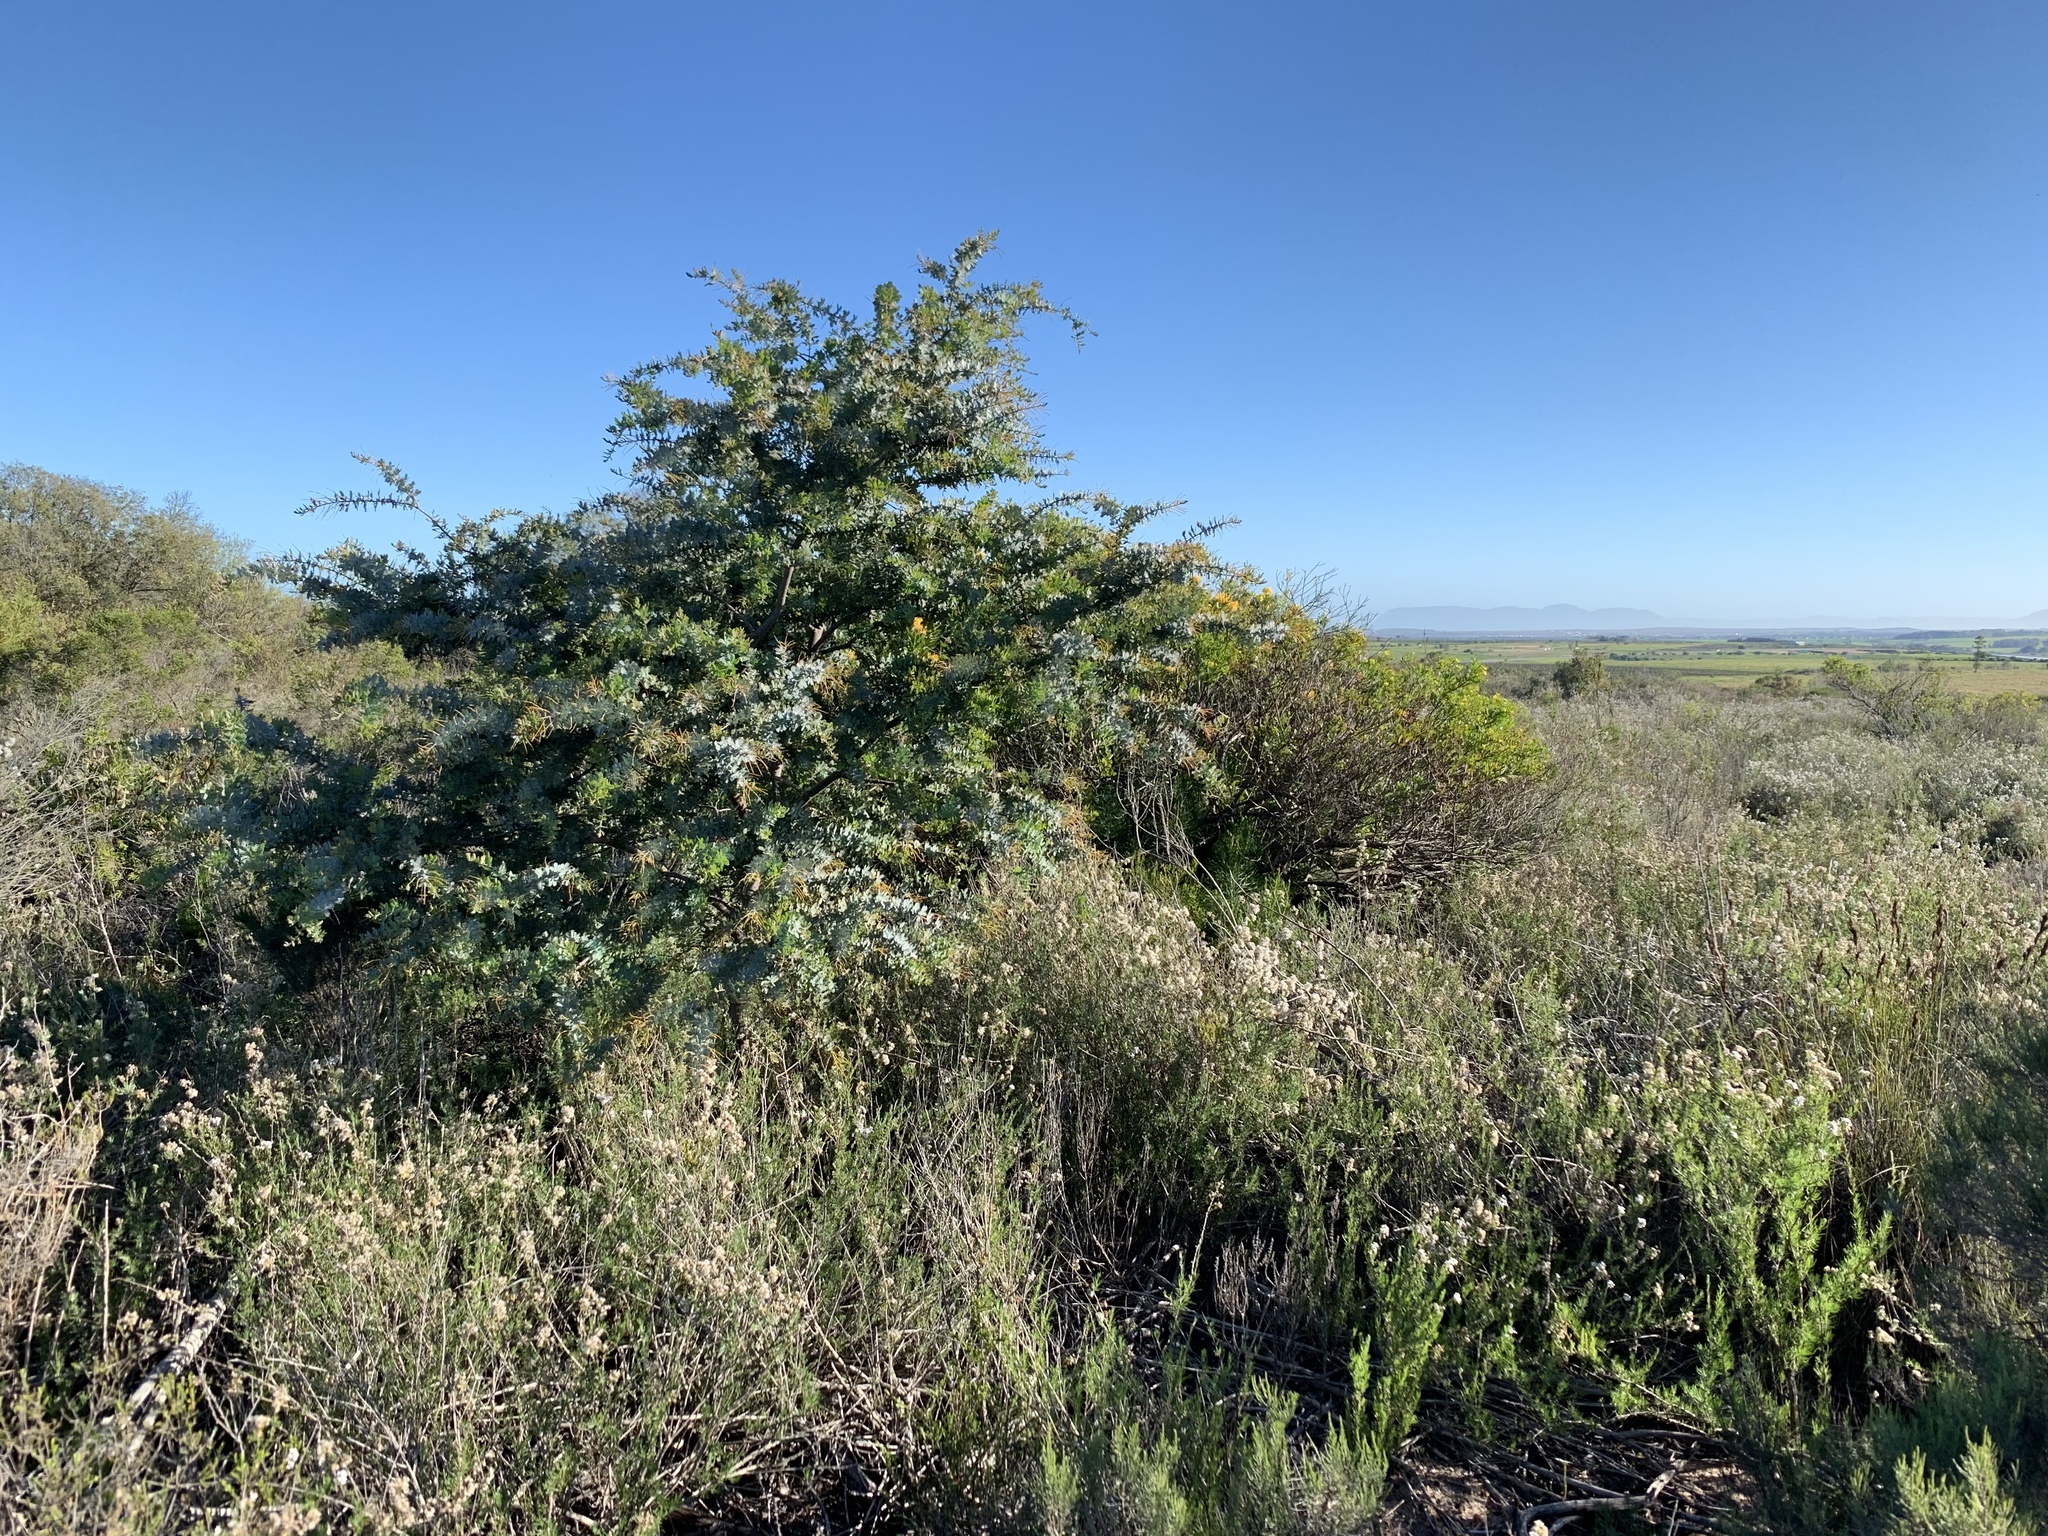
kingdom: Plantae
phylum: Tracheophyta
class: Magnoliopsida
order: Fabales
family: Fabaceae
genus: Acacia
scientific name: Acacia baileyana
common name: Cootamundra wattle
